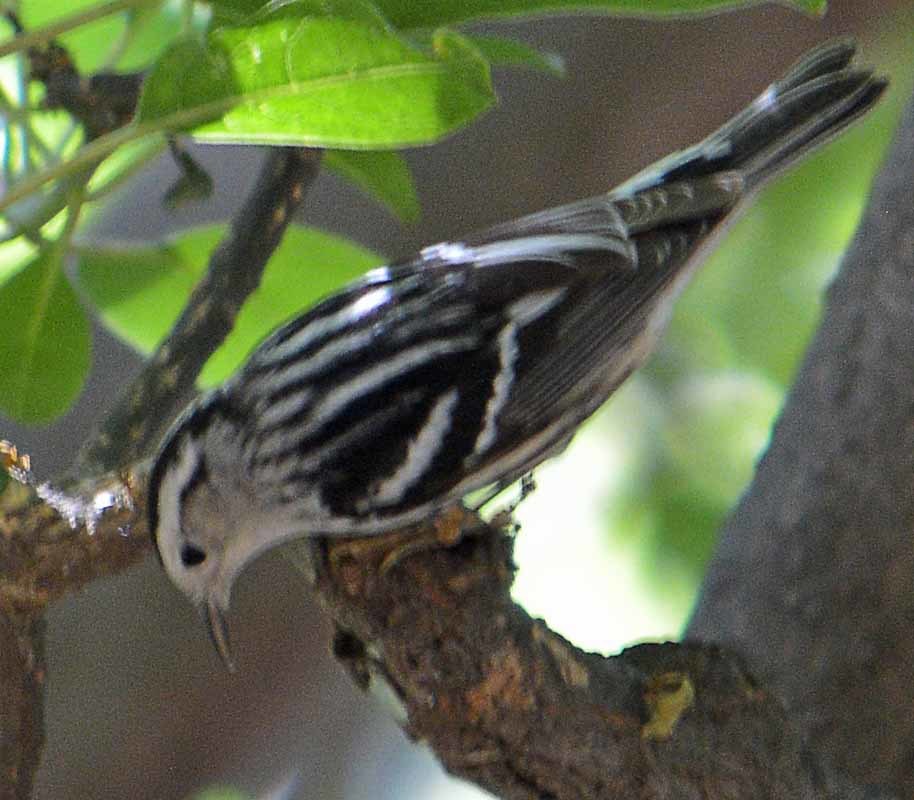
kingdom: Animalia
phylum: Chordata
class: Aves
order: Passeriformes
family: Parulidae
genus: Mniotilta
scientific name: Mniotilta varia
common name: Black-and-white warbler
